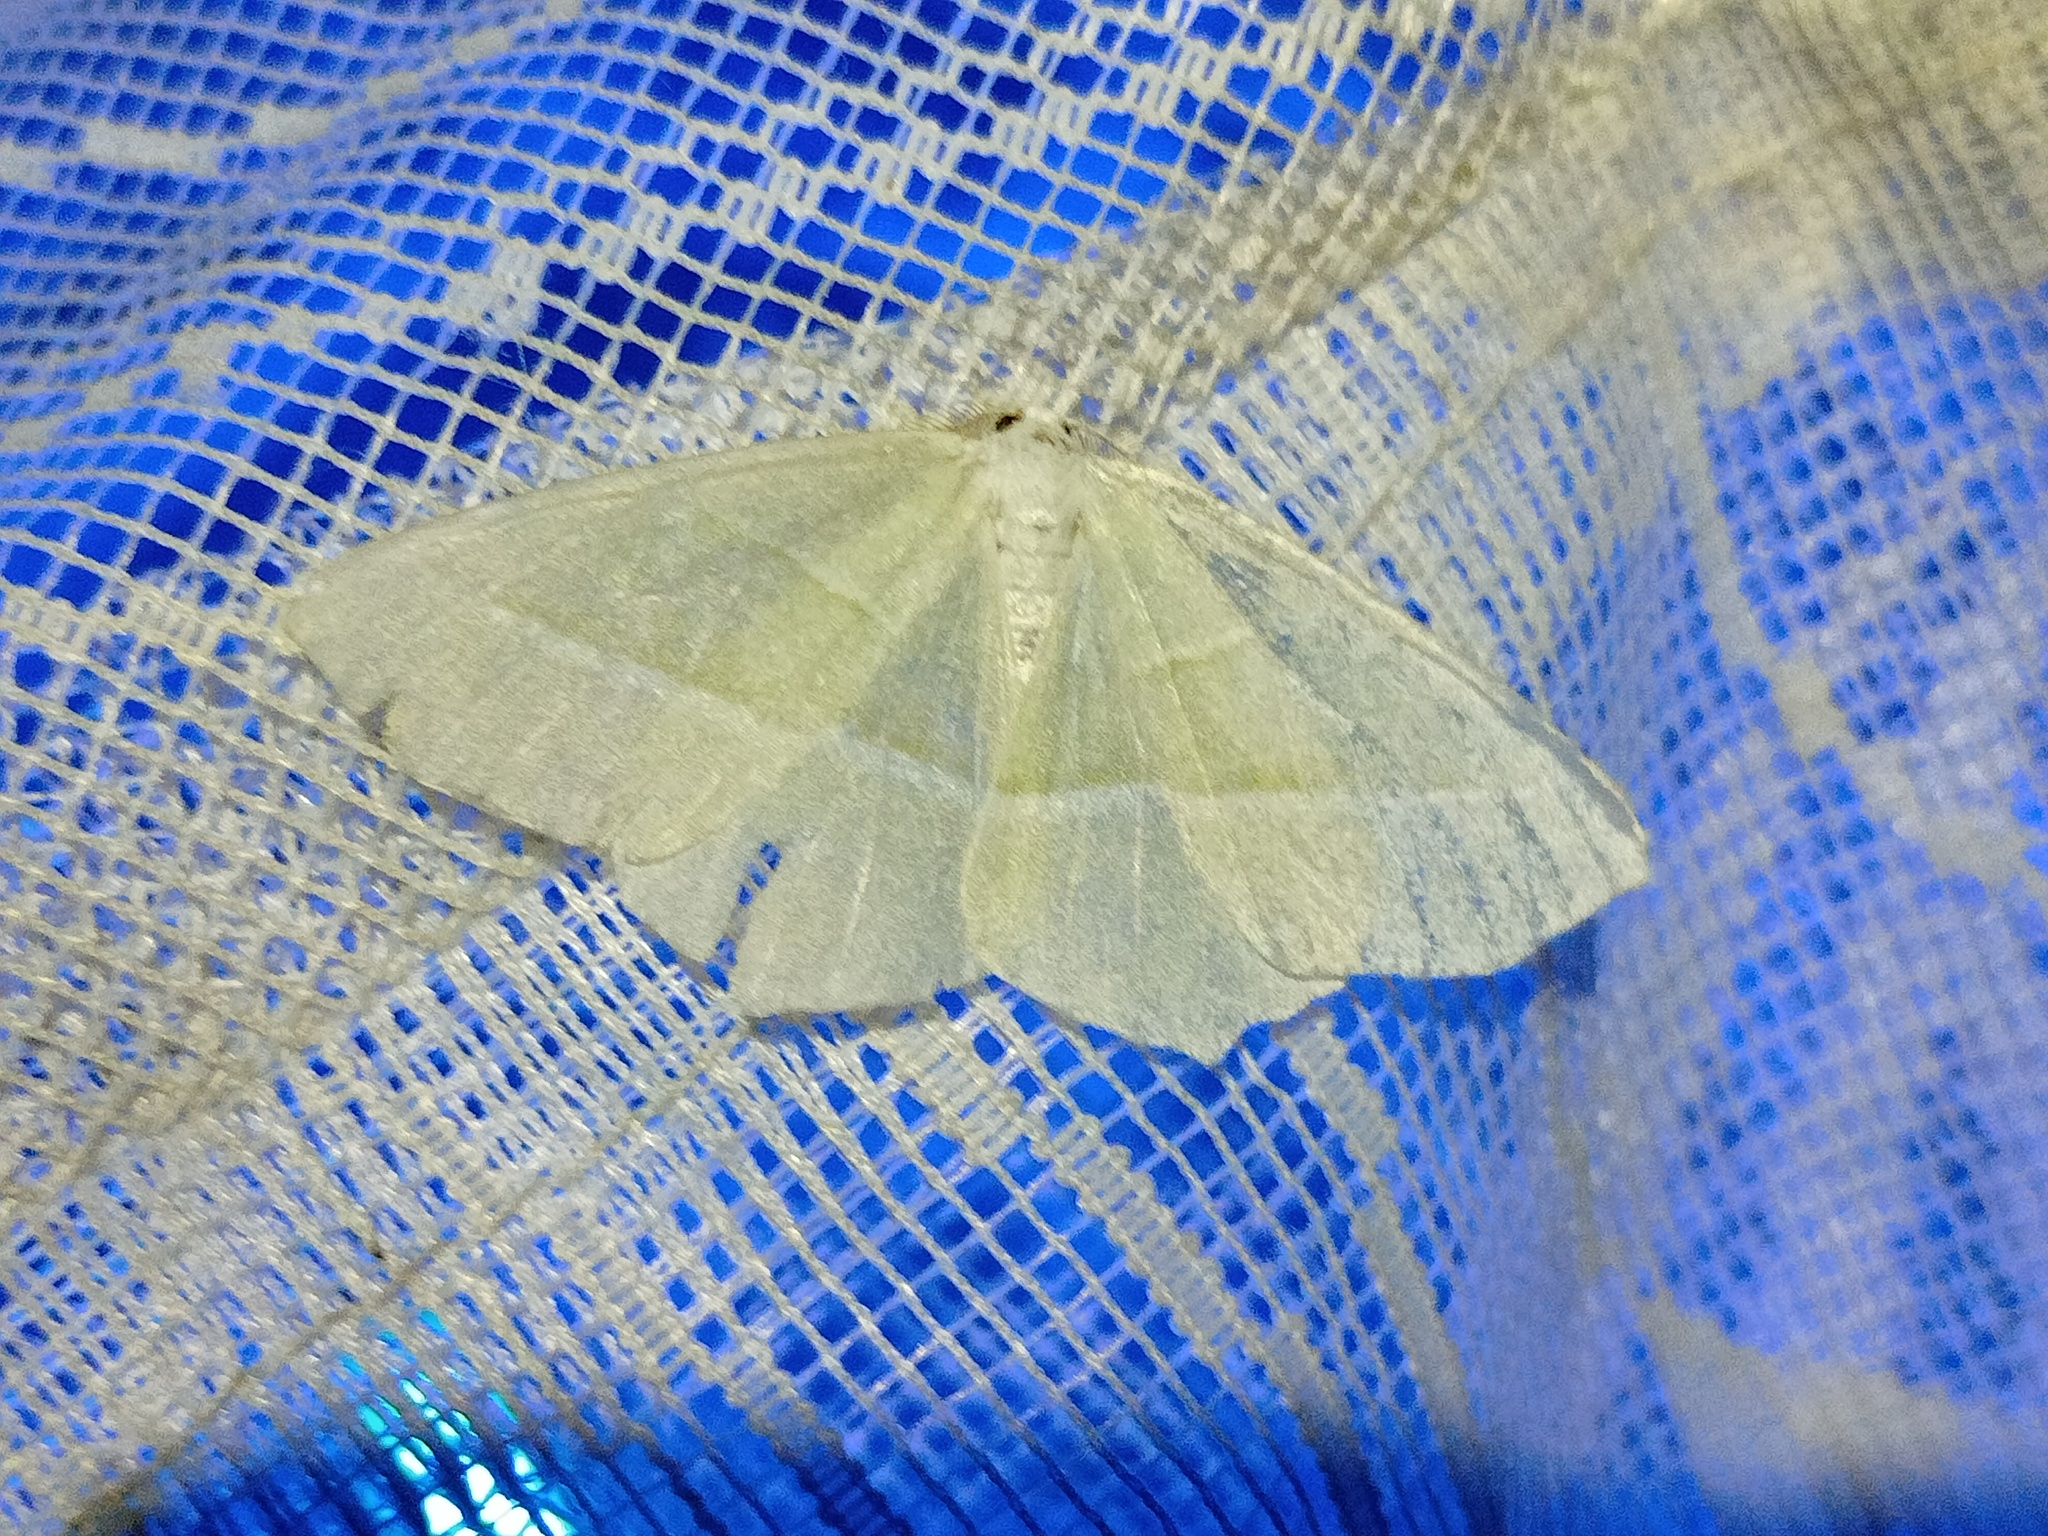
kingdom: Animalia
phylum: Arthropoda
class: Insecta
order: Lepidoptera
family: Geometridae
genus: Campaea
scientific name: Campaea margaritaria
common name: Light emerald
